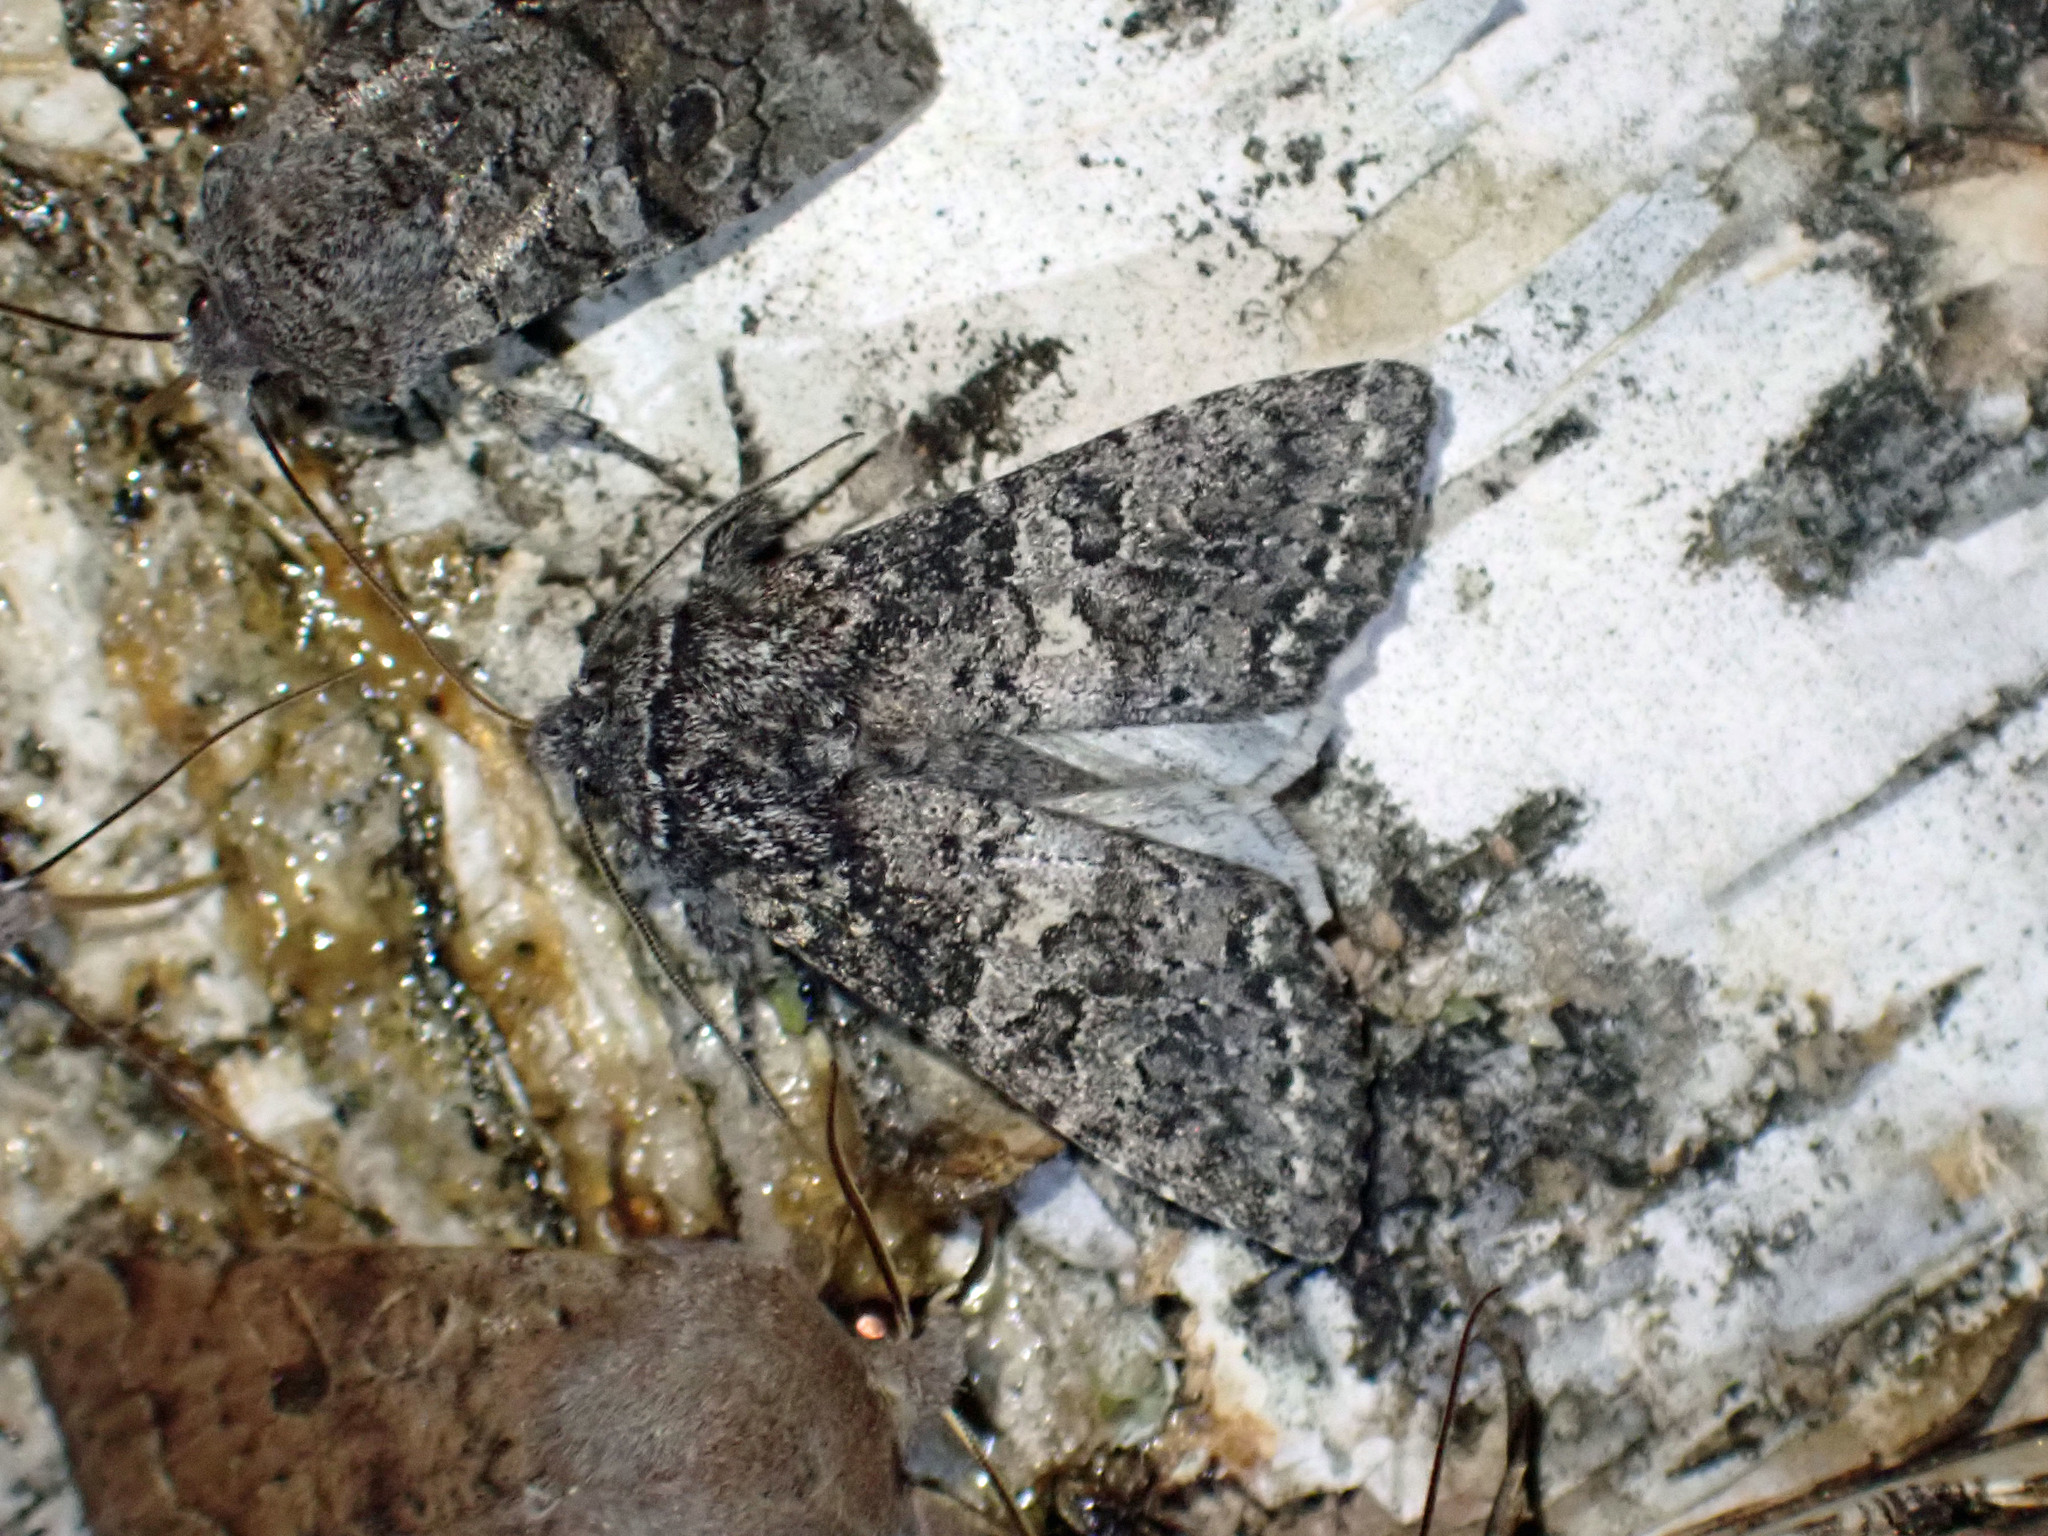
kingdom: Animalia
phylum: Arthropoda
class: Insecta
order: Lepidoptera
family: Noctuidae
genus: Egira
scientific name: Egira dolosa
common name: Lined black aspen cat.
